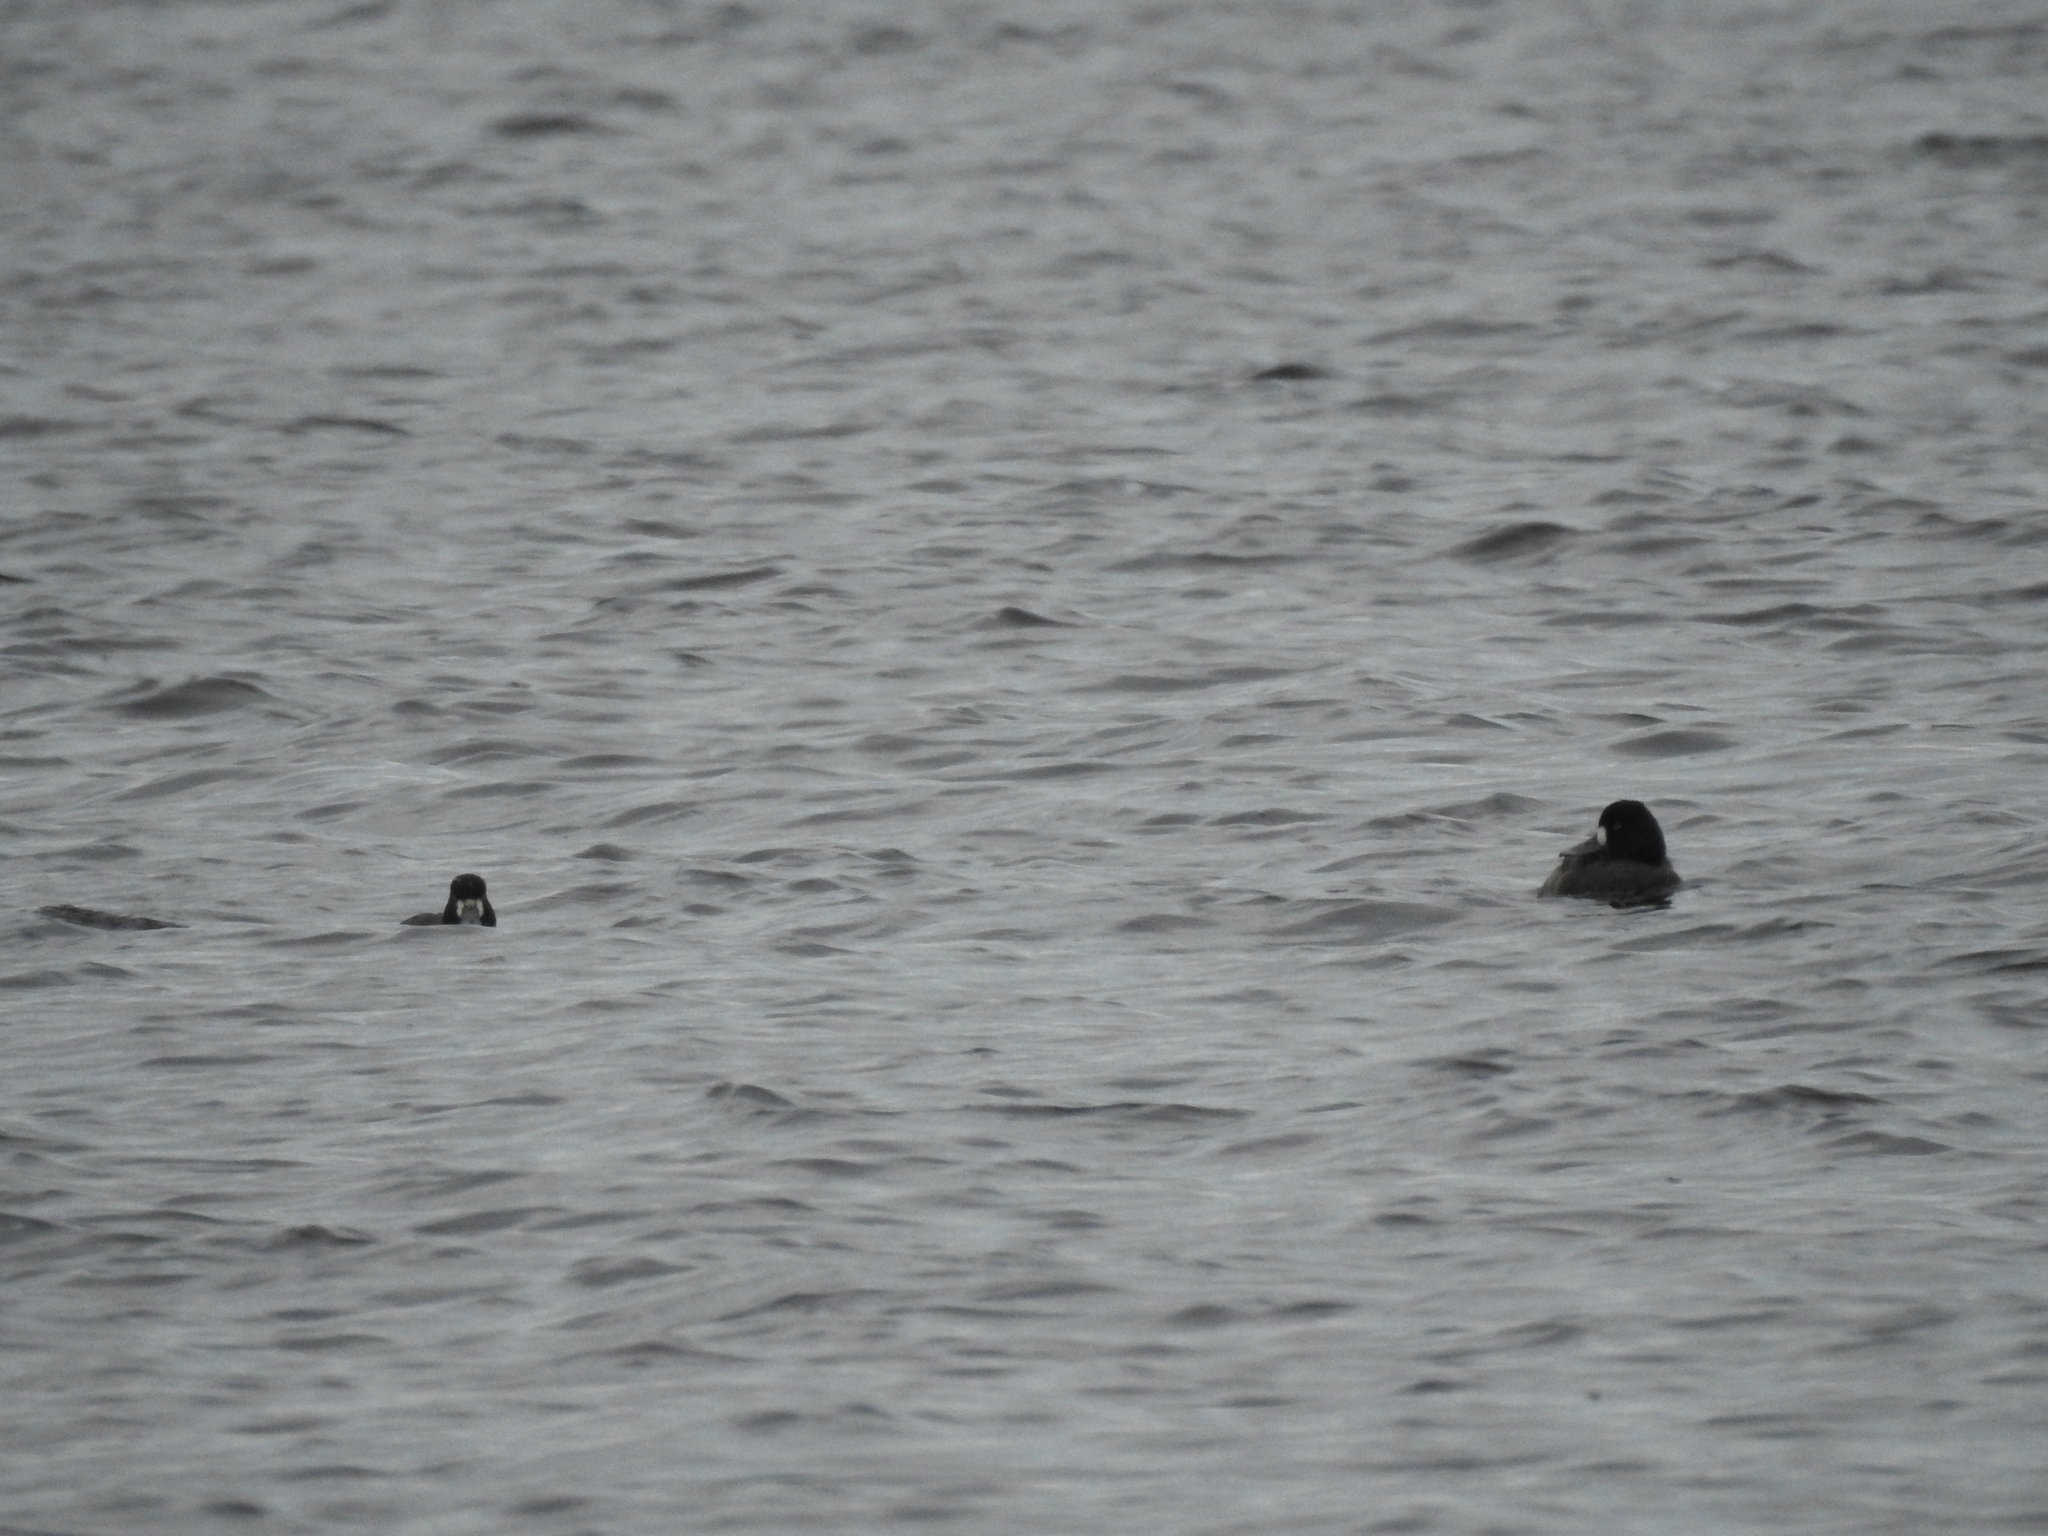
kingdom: Animalia
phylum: Chordata
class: Aves
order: Anseriformes
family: Anatidae
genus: Aythya
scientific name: Aythya affinis
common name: Lesser scaup
